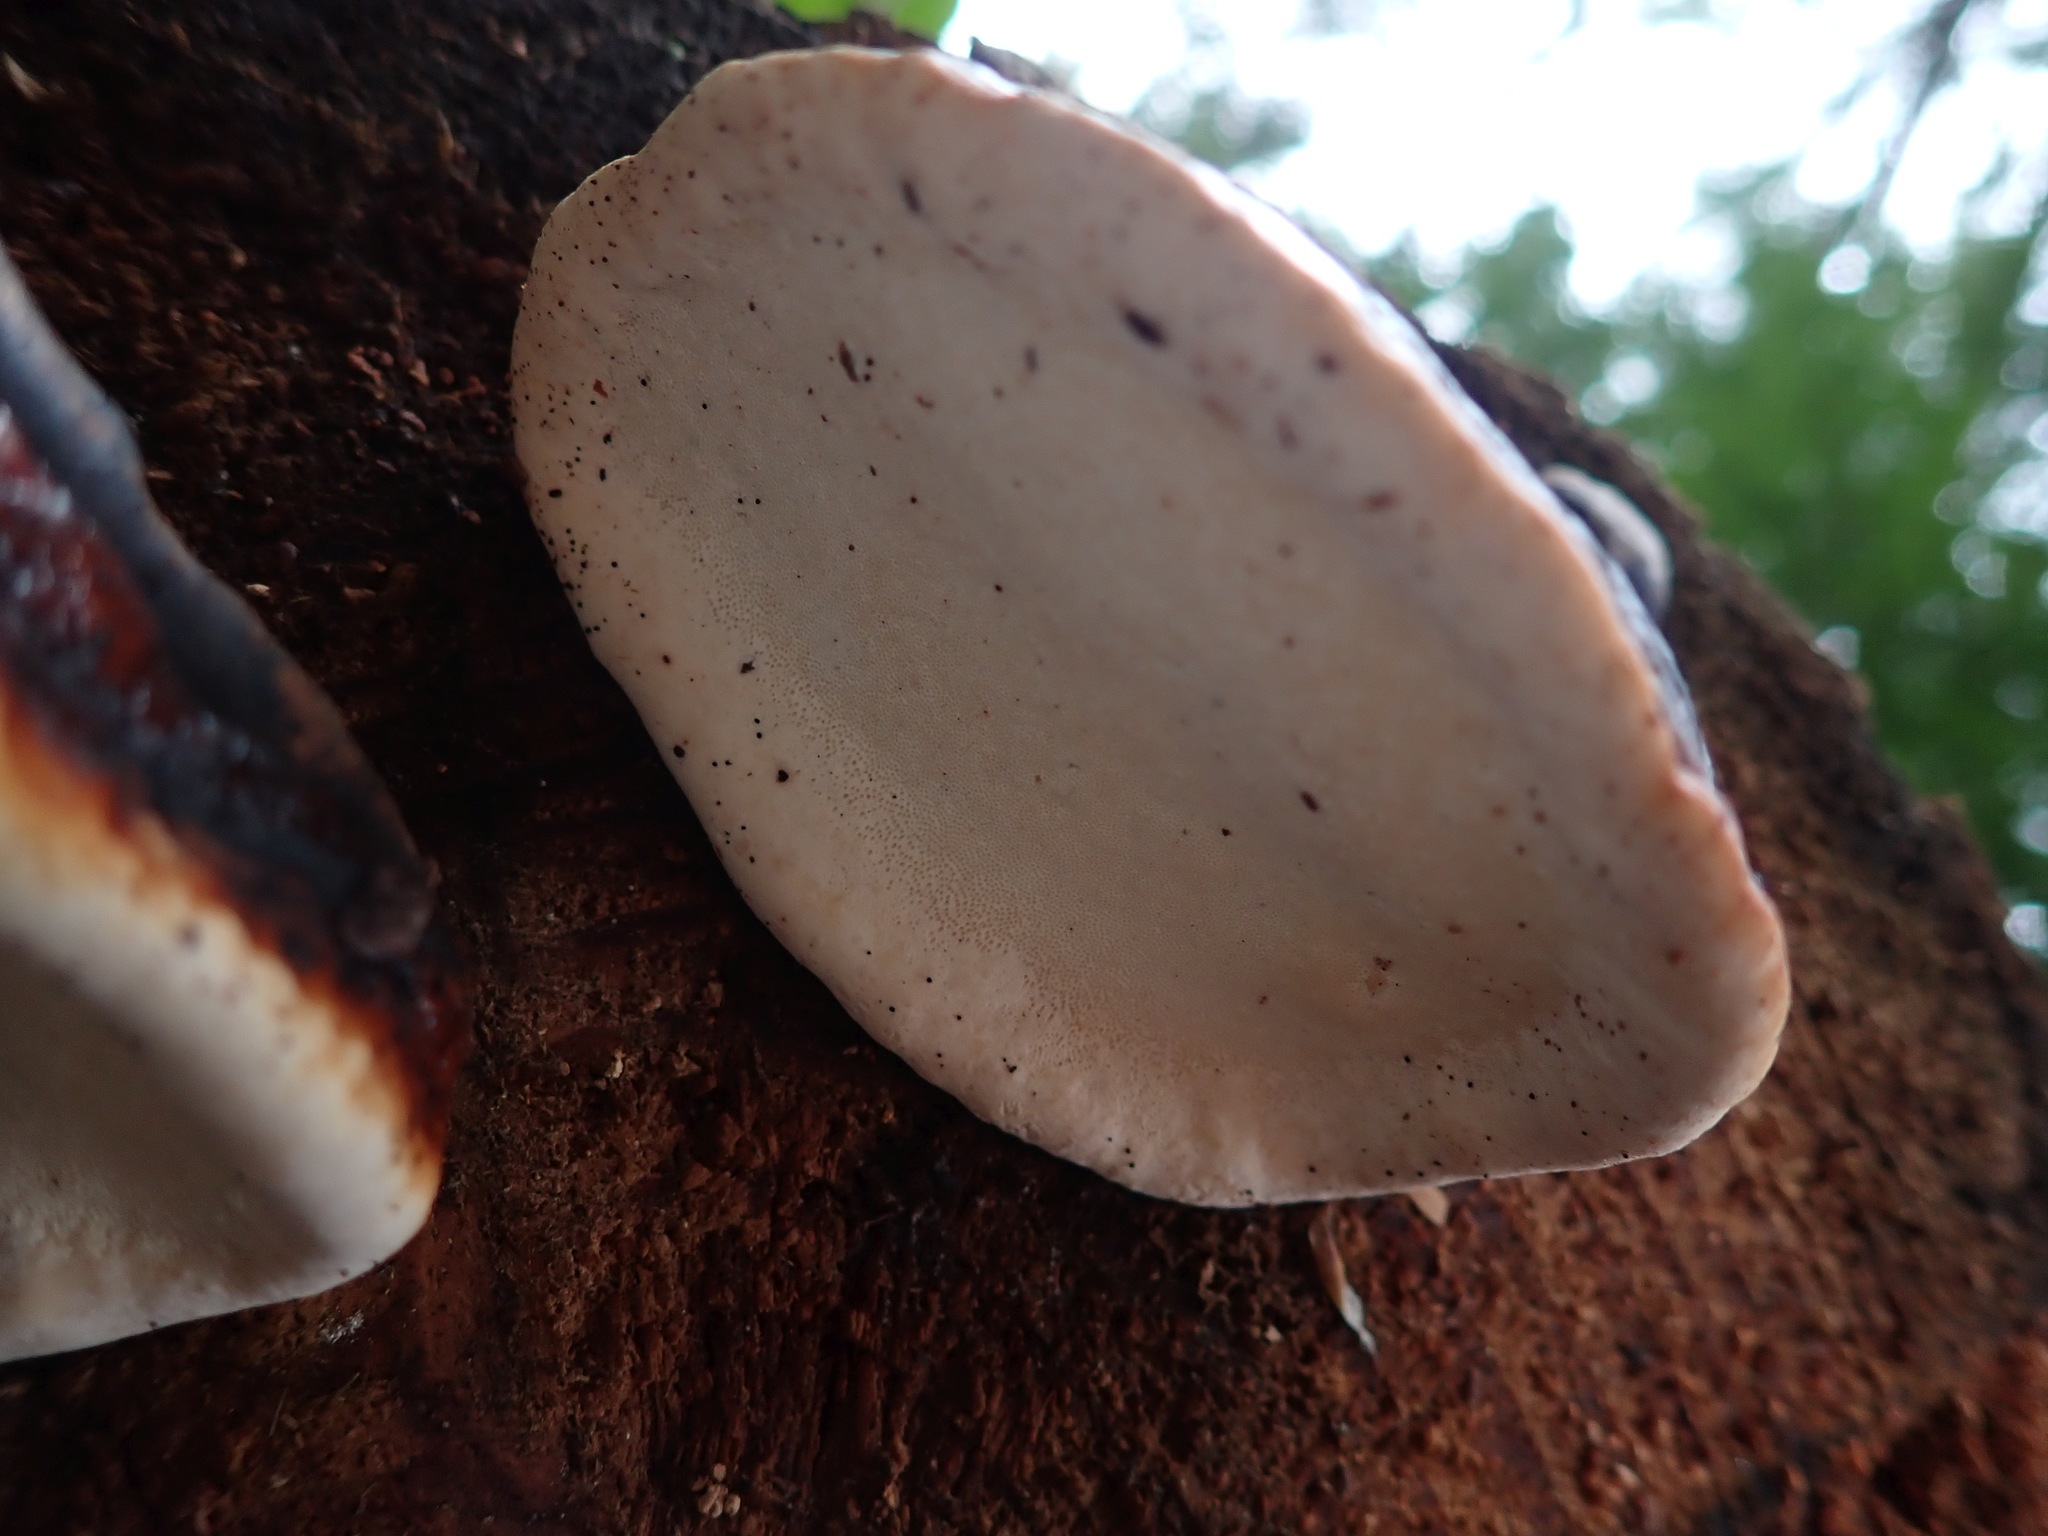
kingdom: Fungi
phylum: Basidiomycota
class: Agaricomycetes
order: Polyporales
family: Fomitopsidaceae
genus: Fomitopsis
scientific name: Fomitopsis mounceae
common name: Northern red belt
